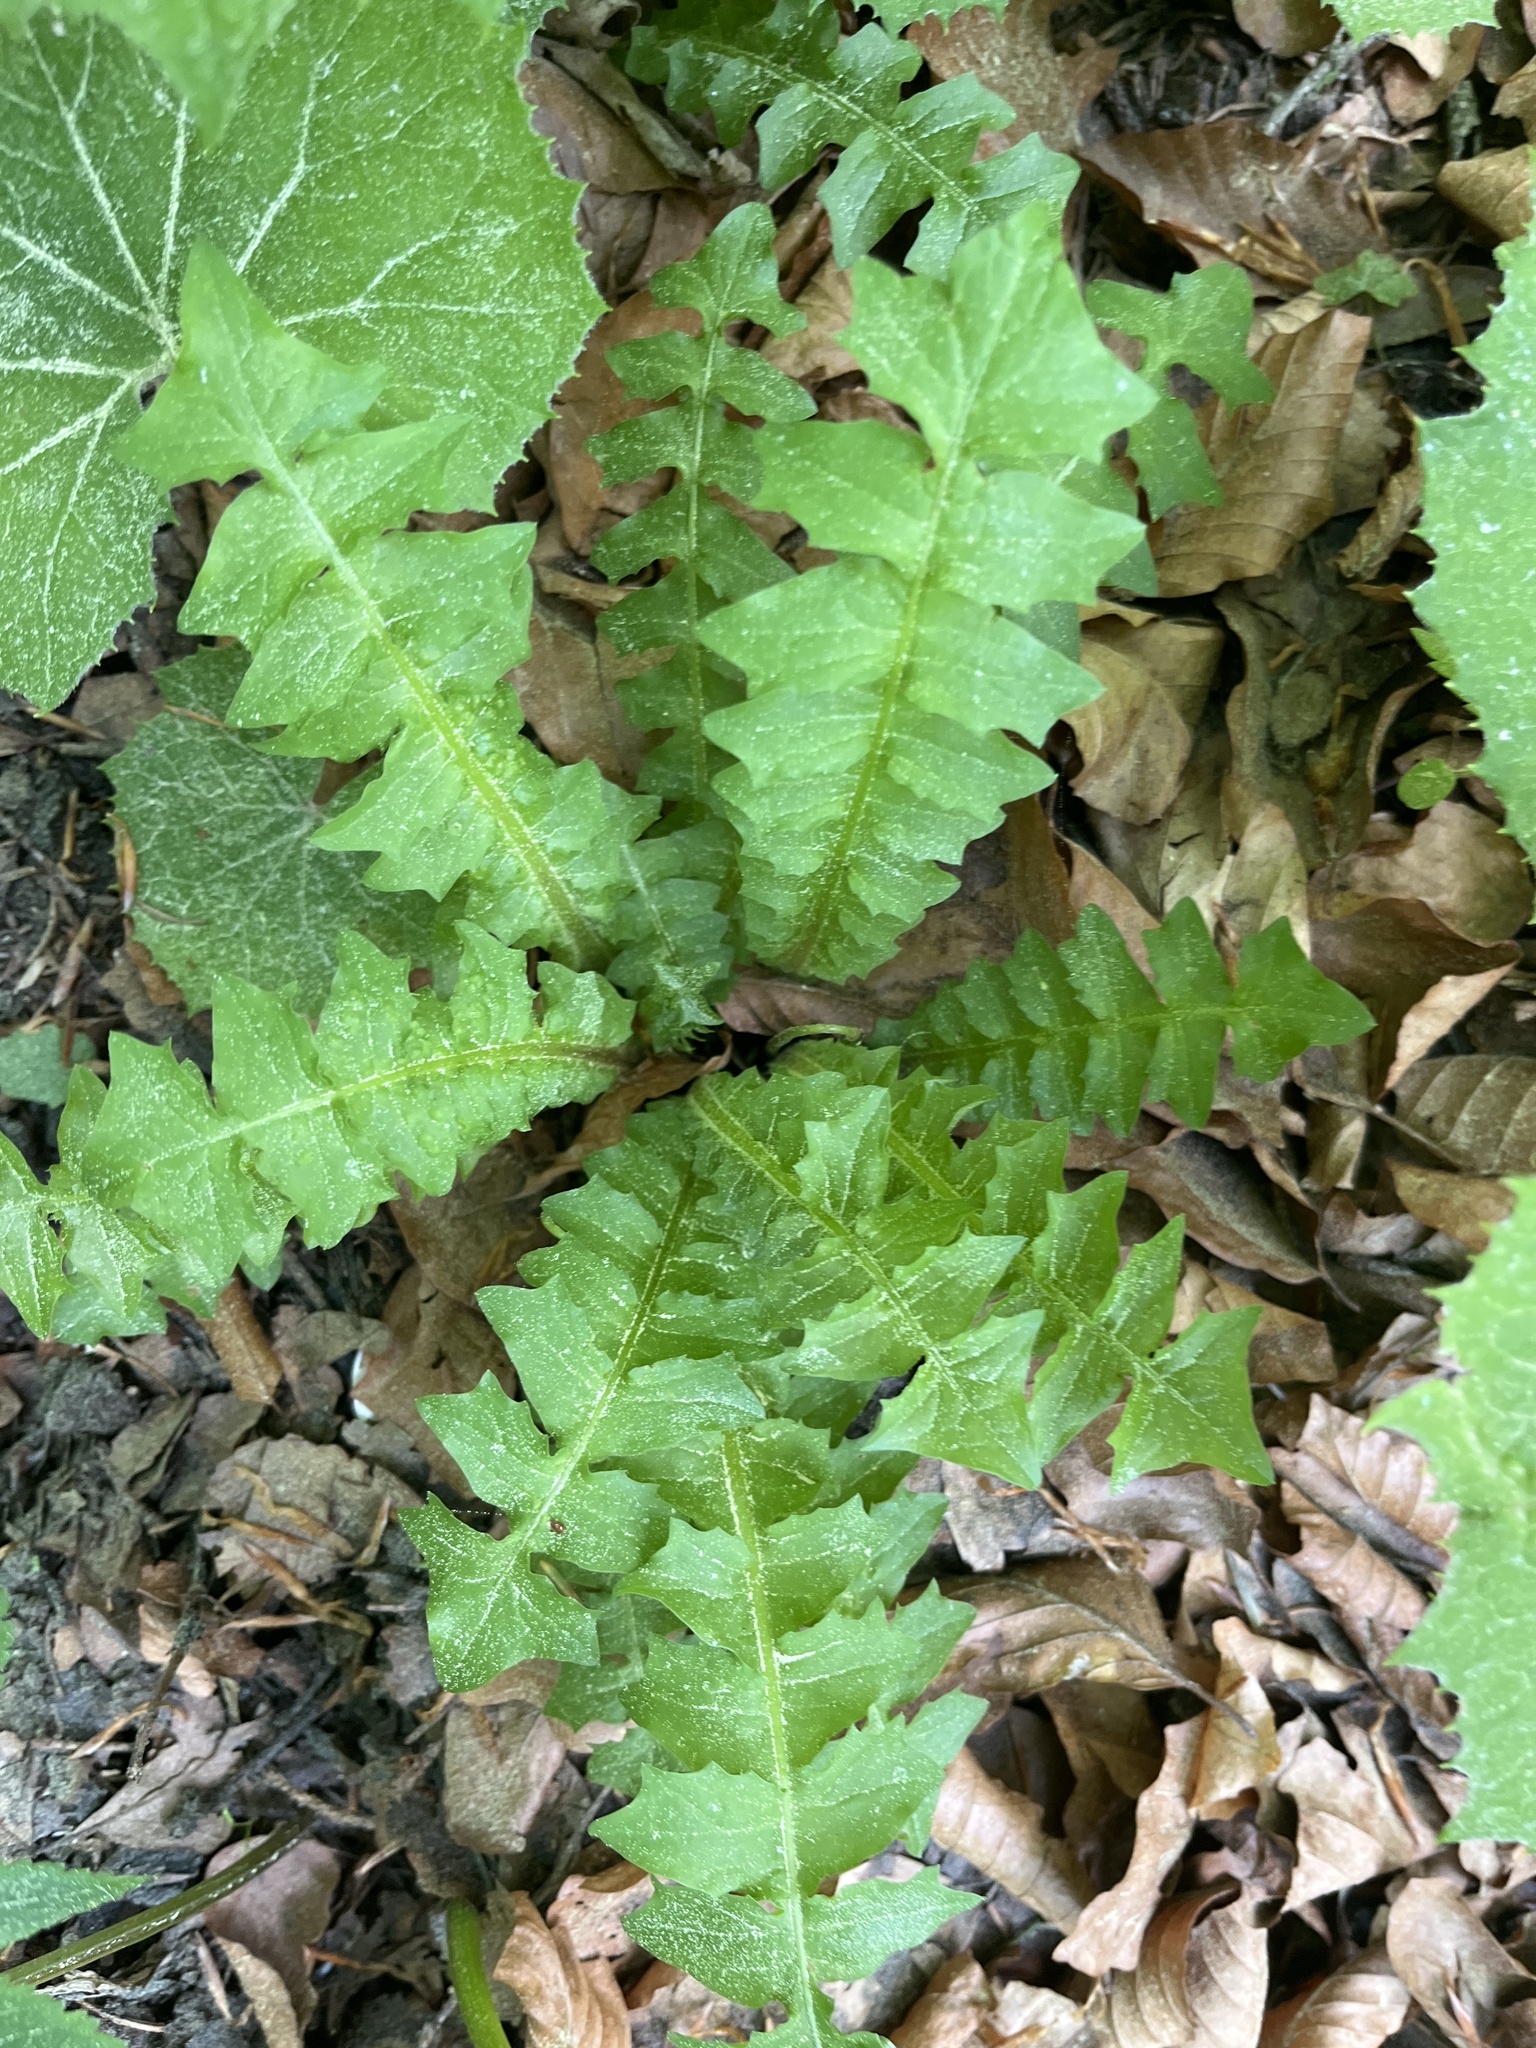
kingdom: Plantae
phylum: Tracheophyta
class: Magnoliopsida
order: Asterales
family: Asteraceae
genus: Aposeris
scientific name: Aposeris foetida
